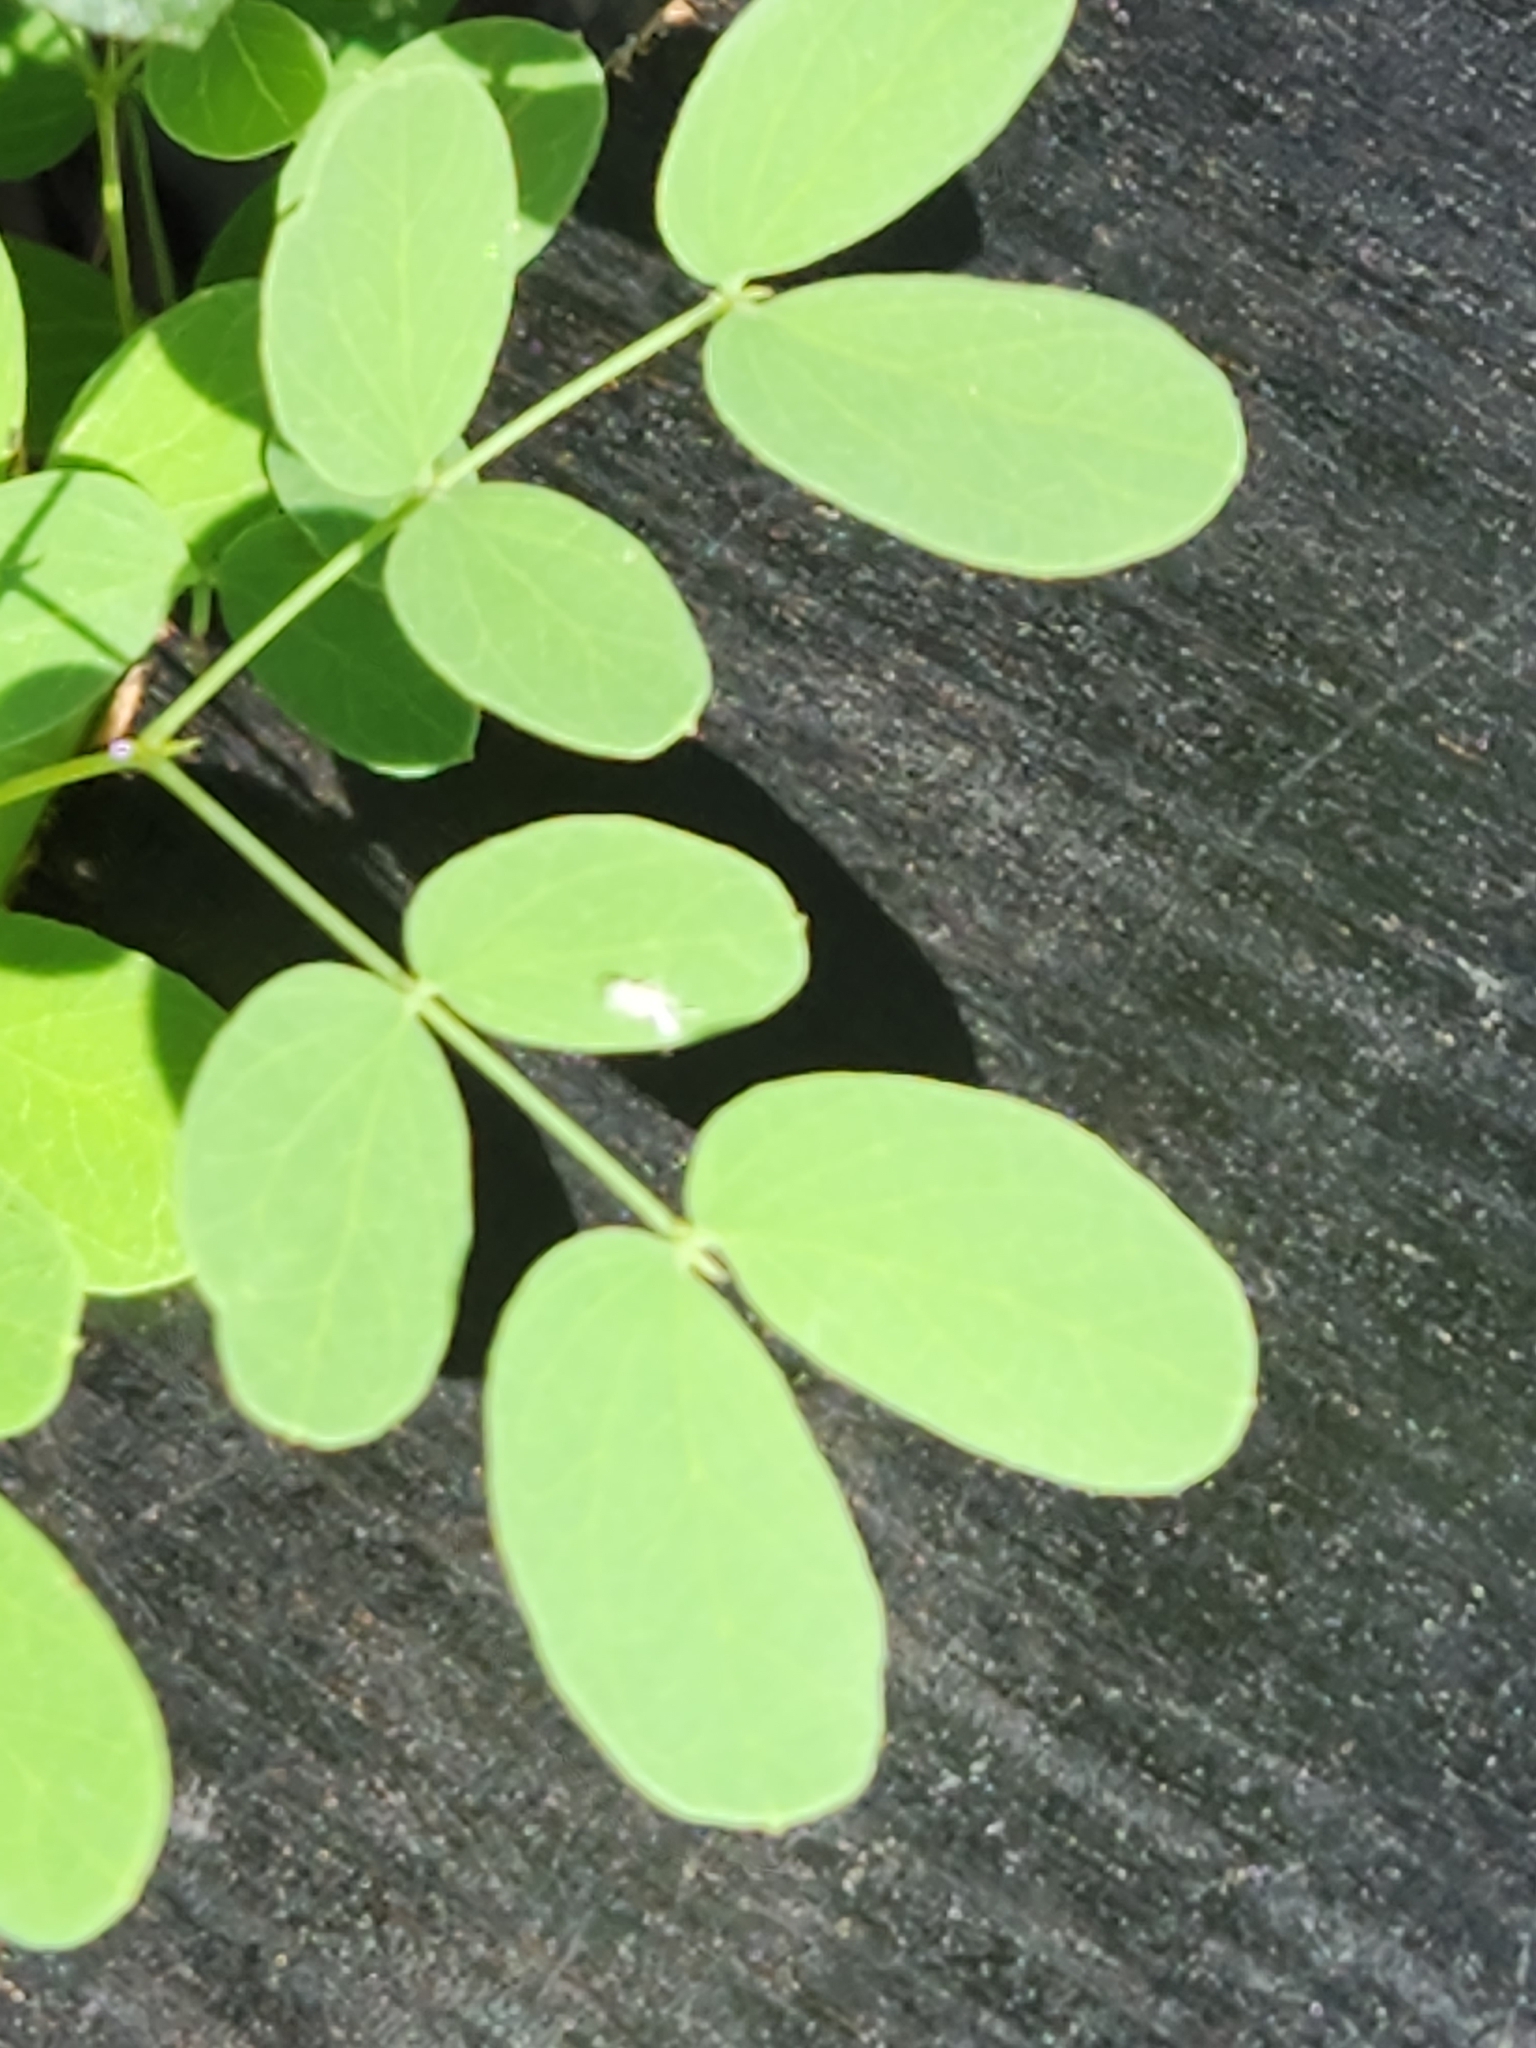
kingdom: Plantae
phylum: Tracheophyta
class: Magnoliopsida
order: Fabales
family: Fabaceae
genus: Leucaena
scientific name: Leucaena retusa
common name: Littleleaf leadtree
